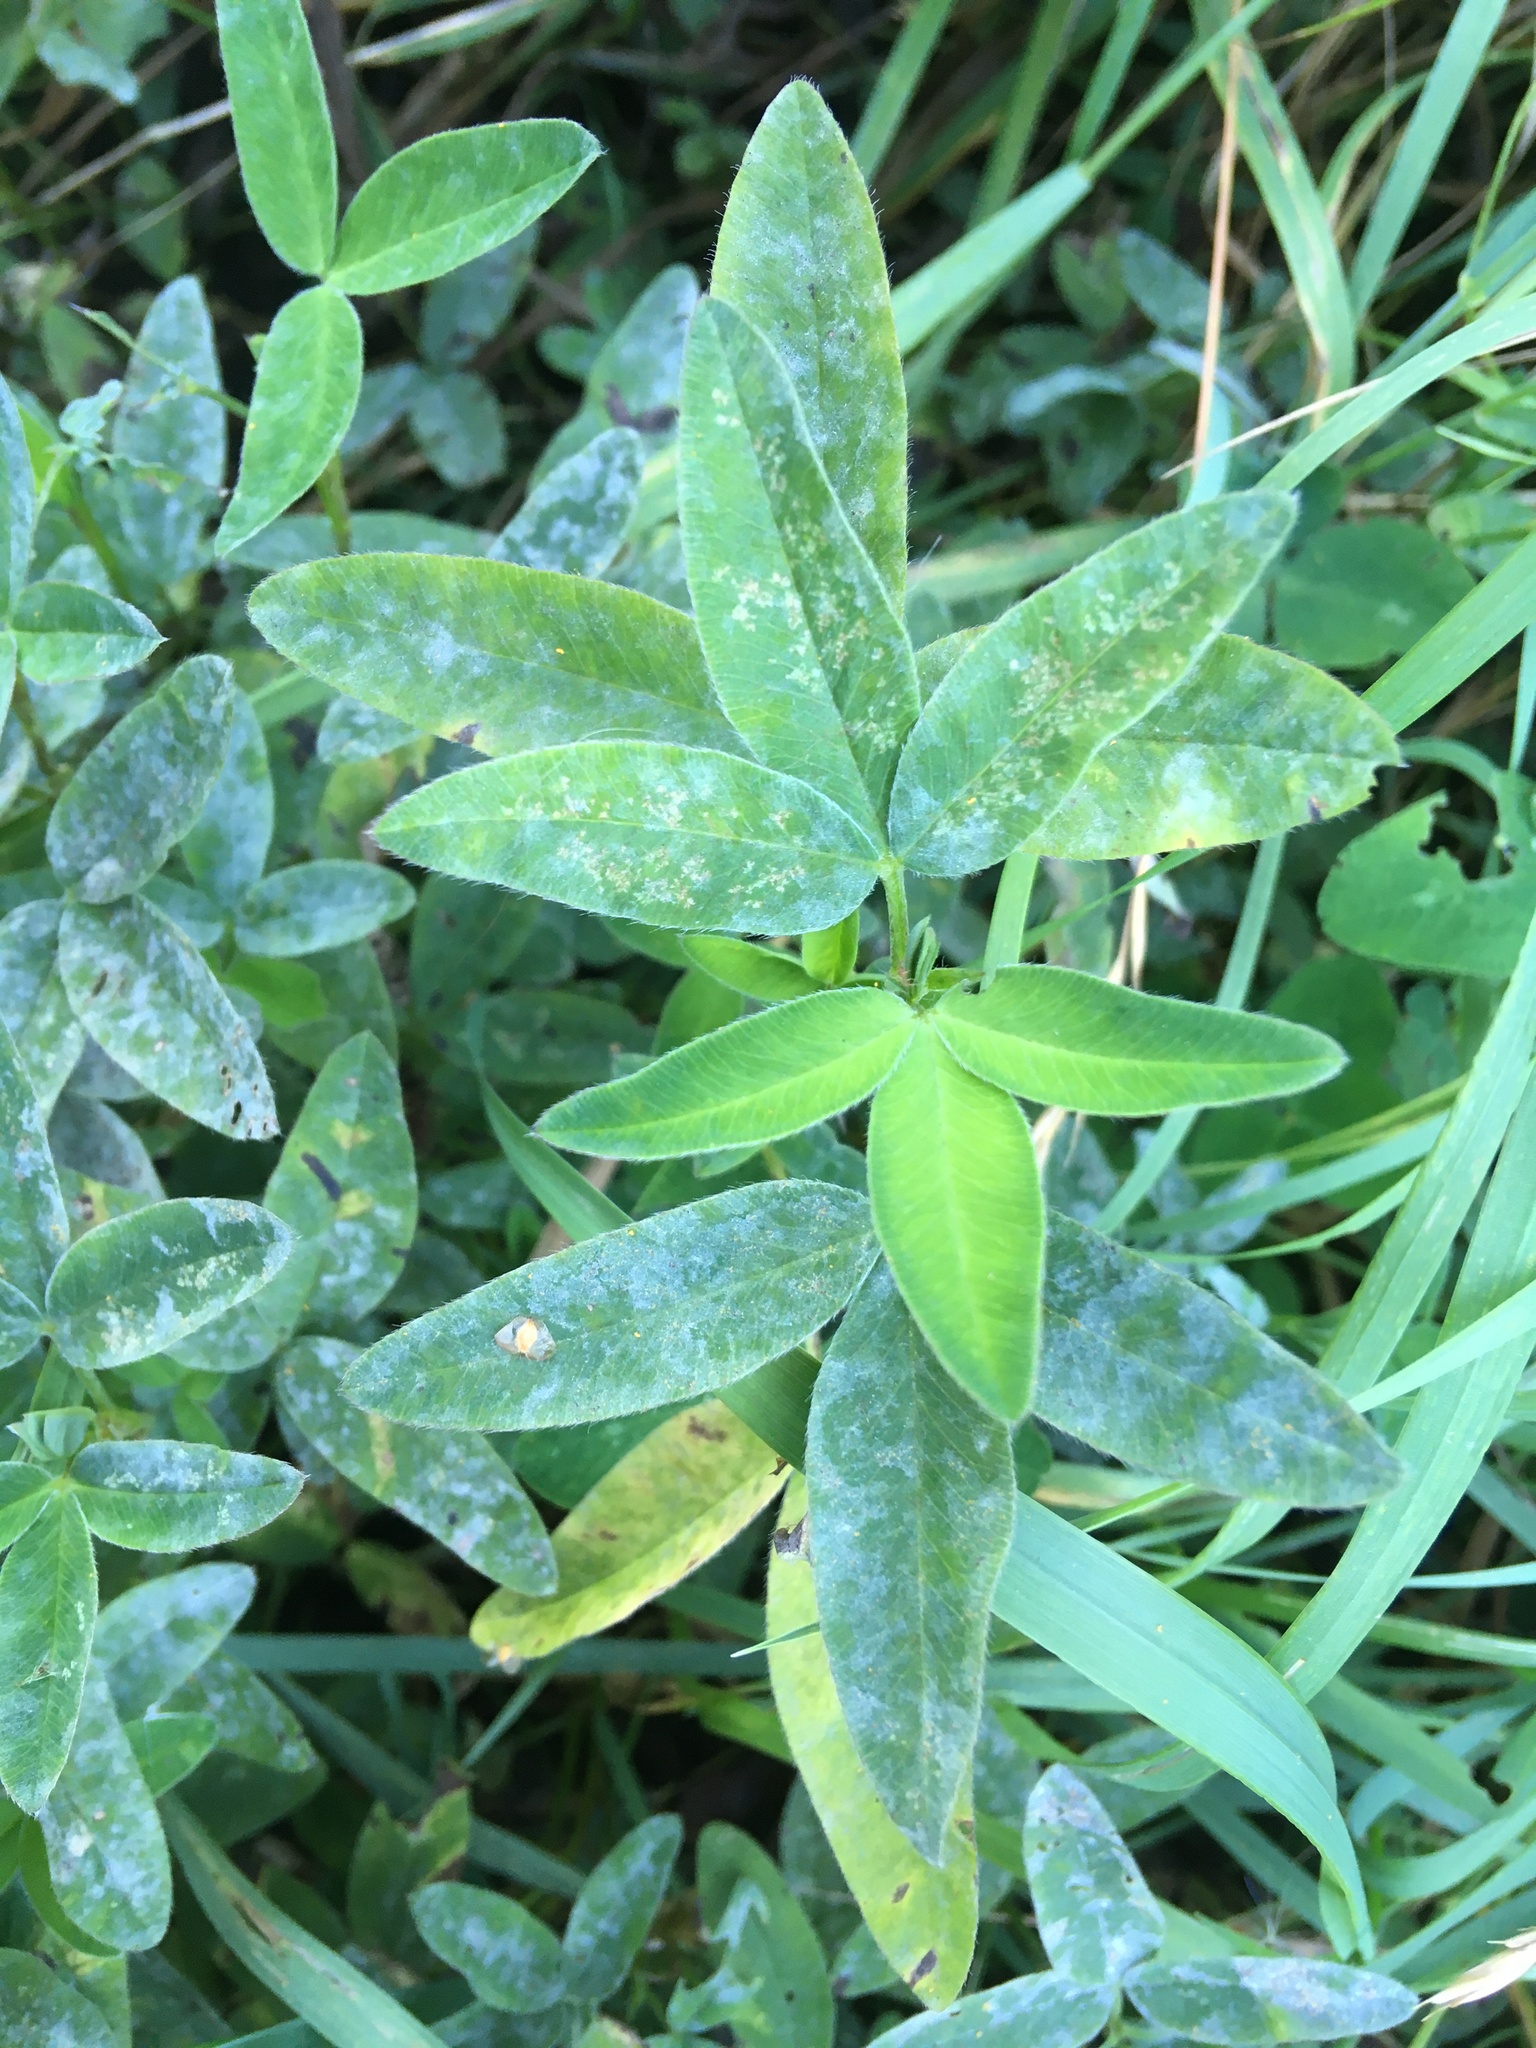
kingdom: Plantae
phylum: Tracheophyta
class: Magnoliopsida
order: Fabales
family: Fabaceae
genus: Trifolium
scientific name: Trifolium medium
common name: Zigzag clover
